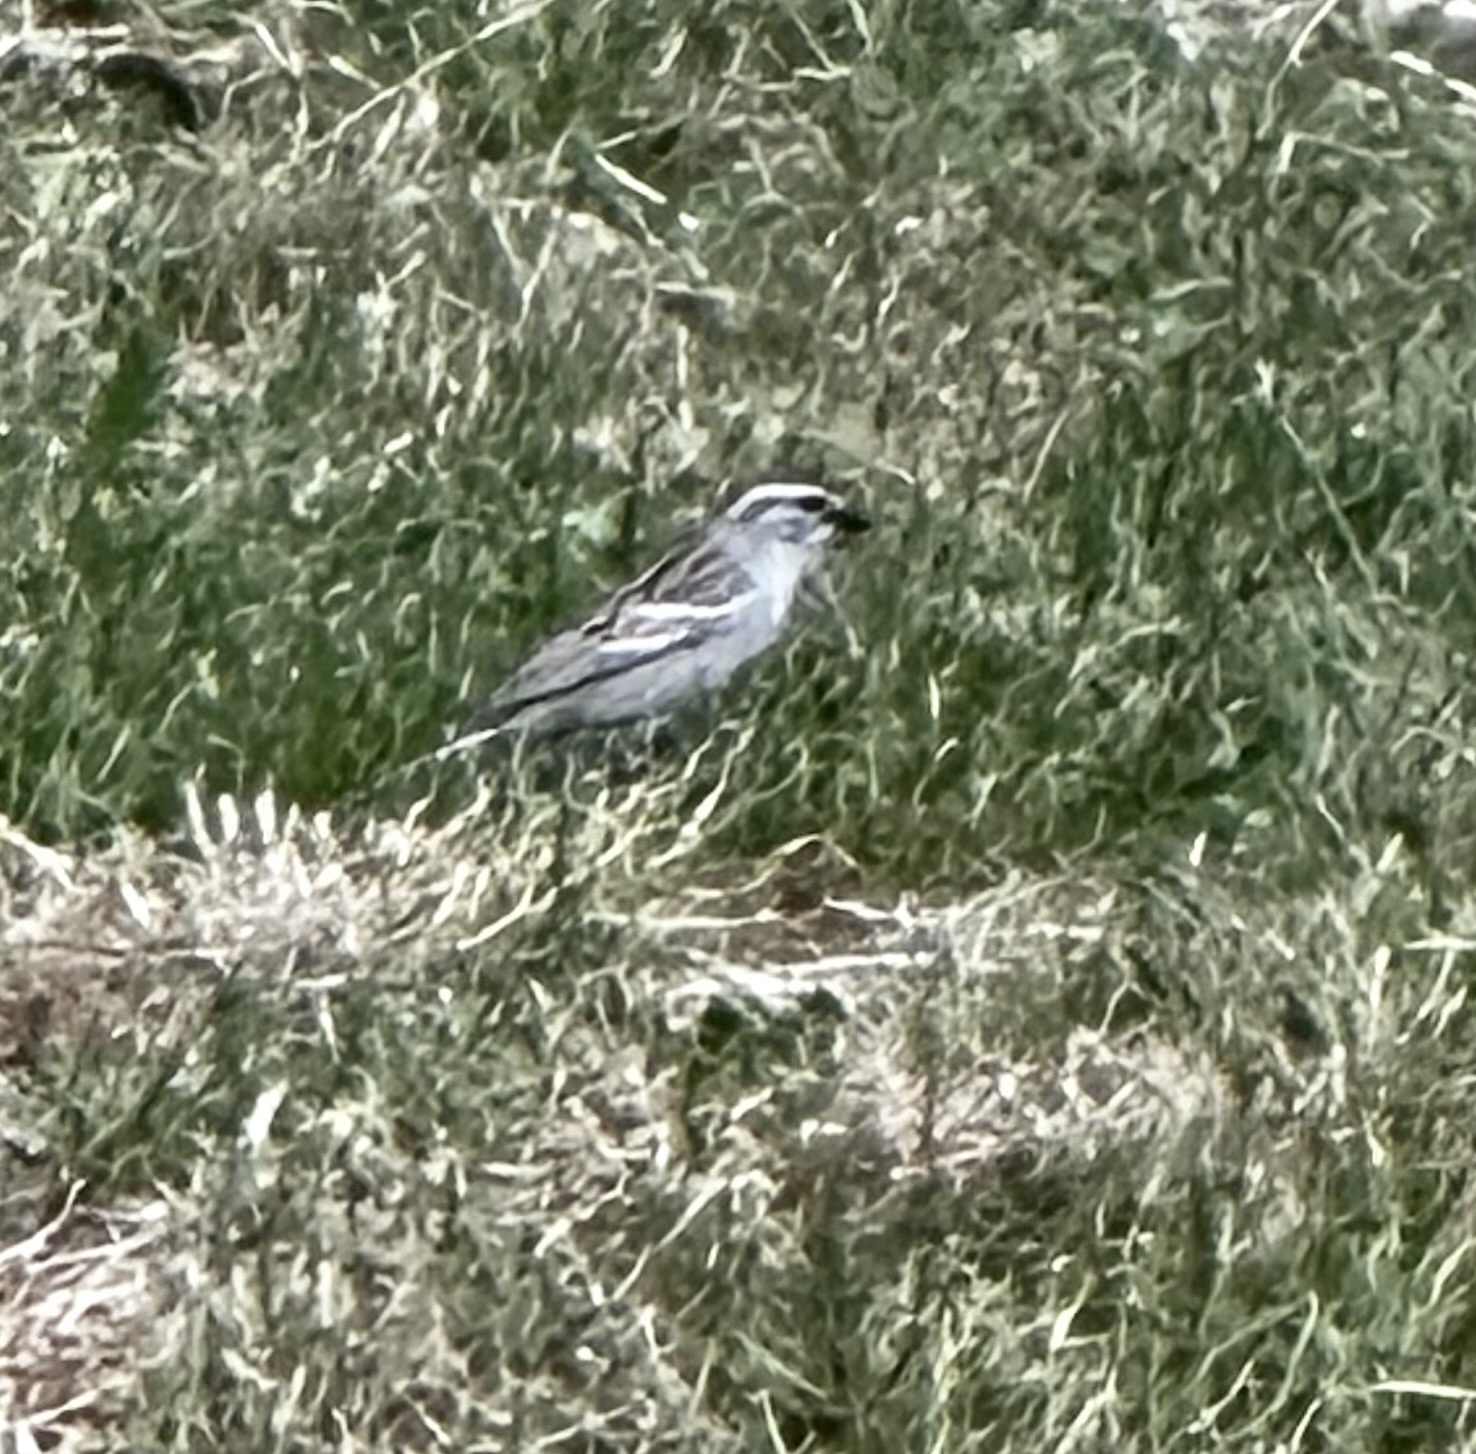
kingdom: Animalia
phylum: Chordata
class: Aves
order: Passeriformes
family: Passerellidae
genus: Spizella
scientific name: Spizella passerina
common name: Chipping sparrow
